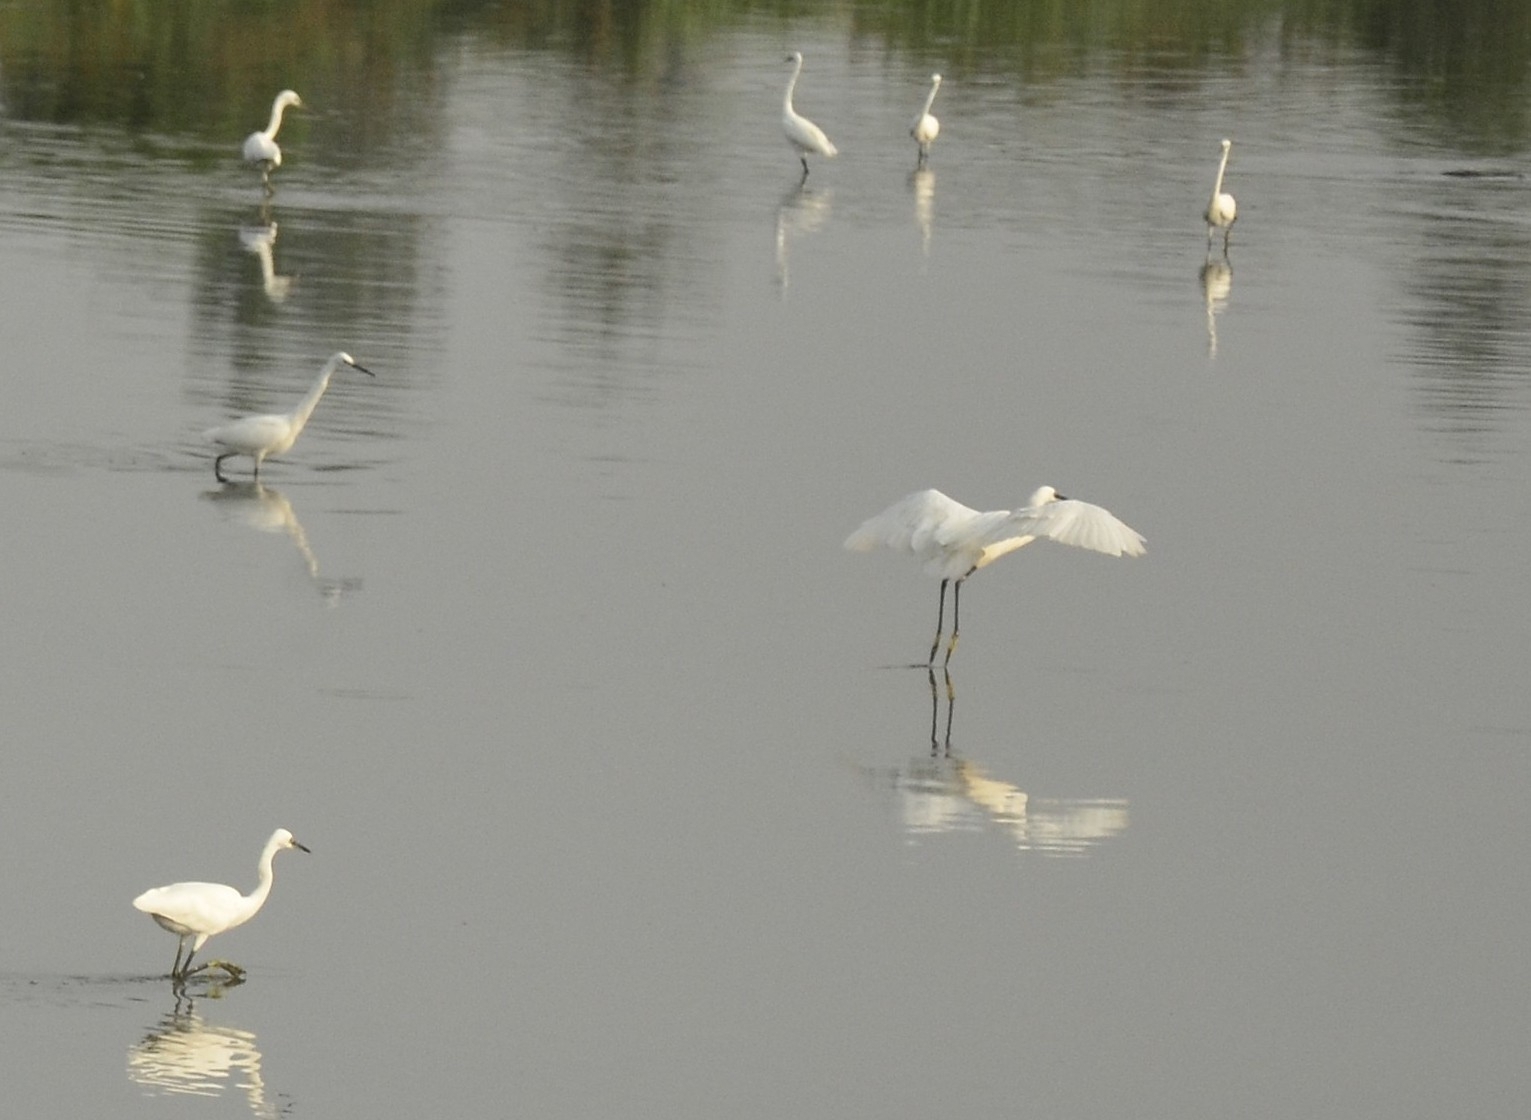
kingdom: Animalia
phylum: Chordata
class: Aves
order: Pelecaniformes
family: Ardeidae
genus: Egretta
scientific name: Egretta garzetta
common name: Little egret
